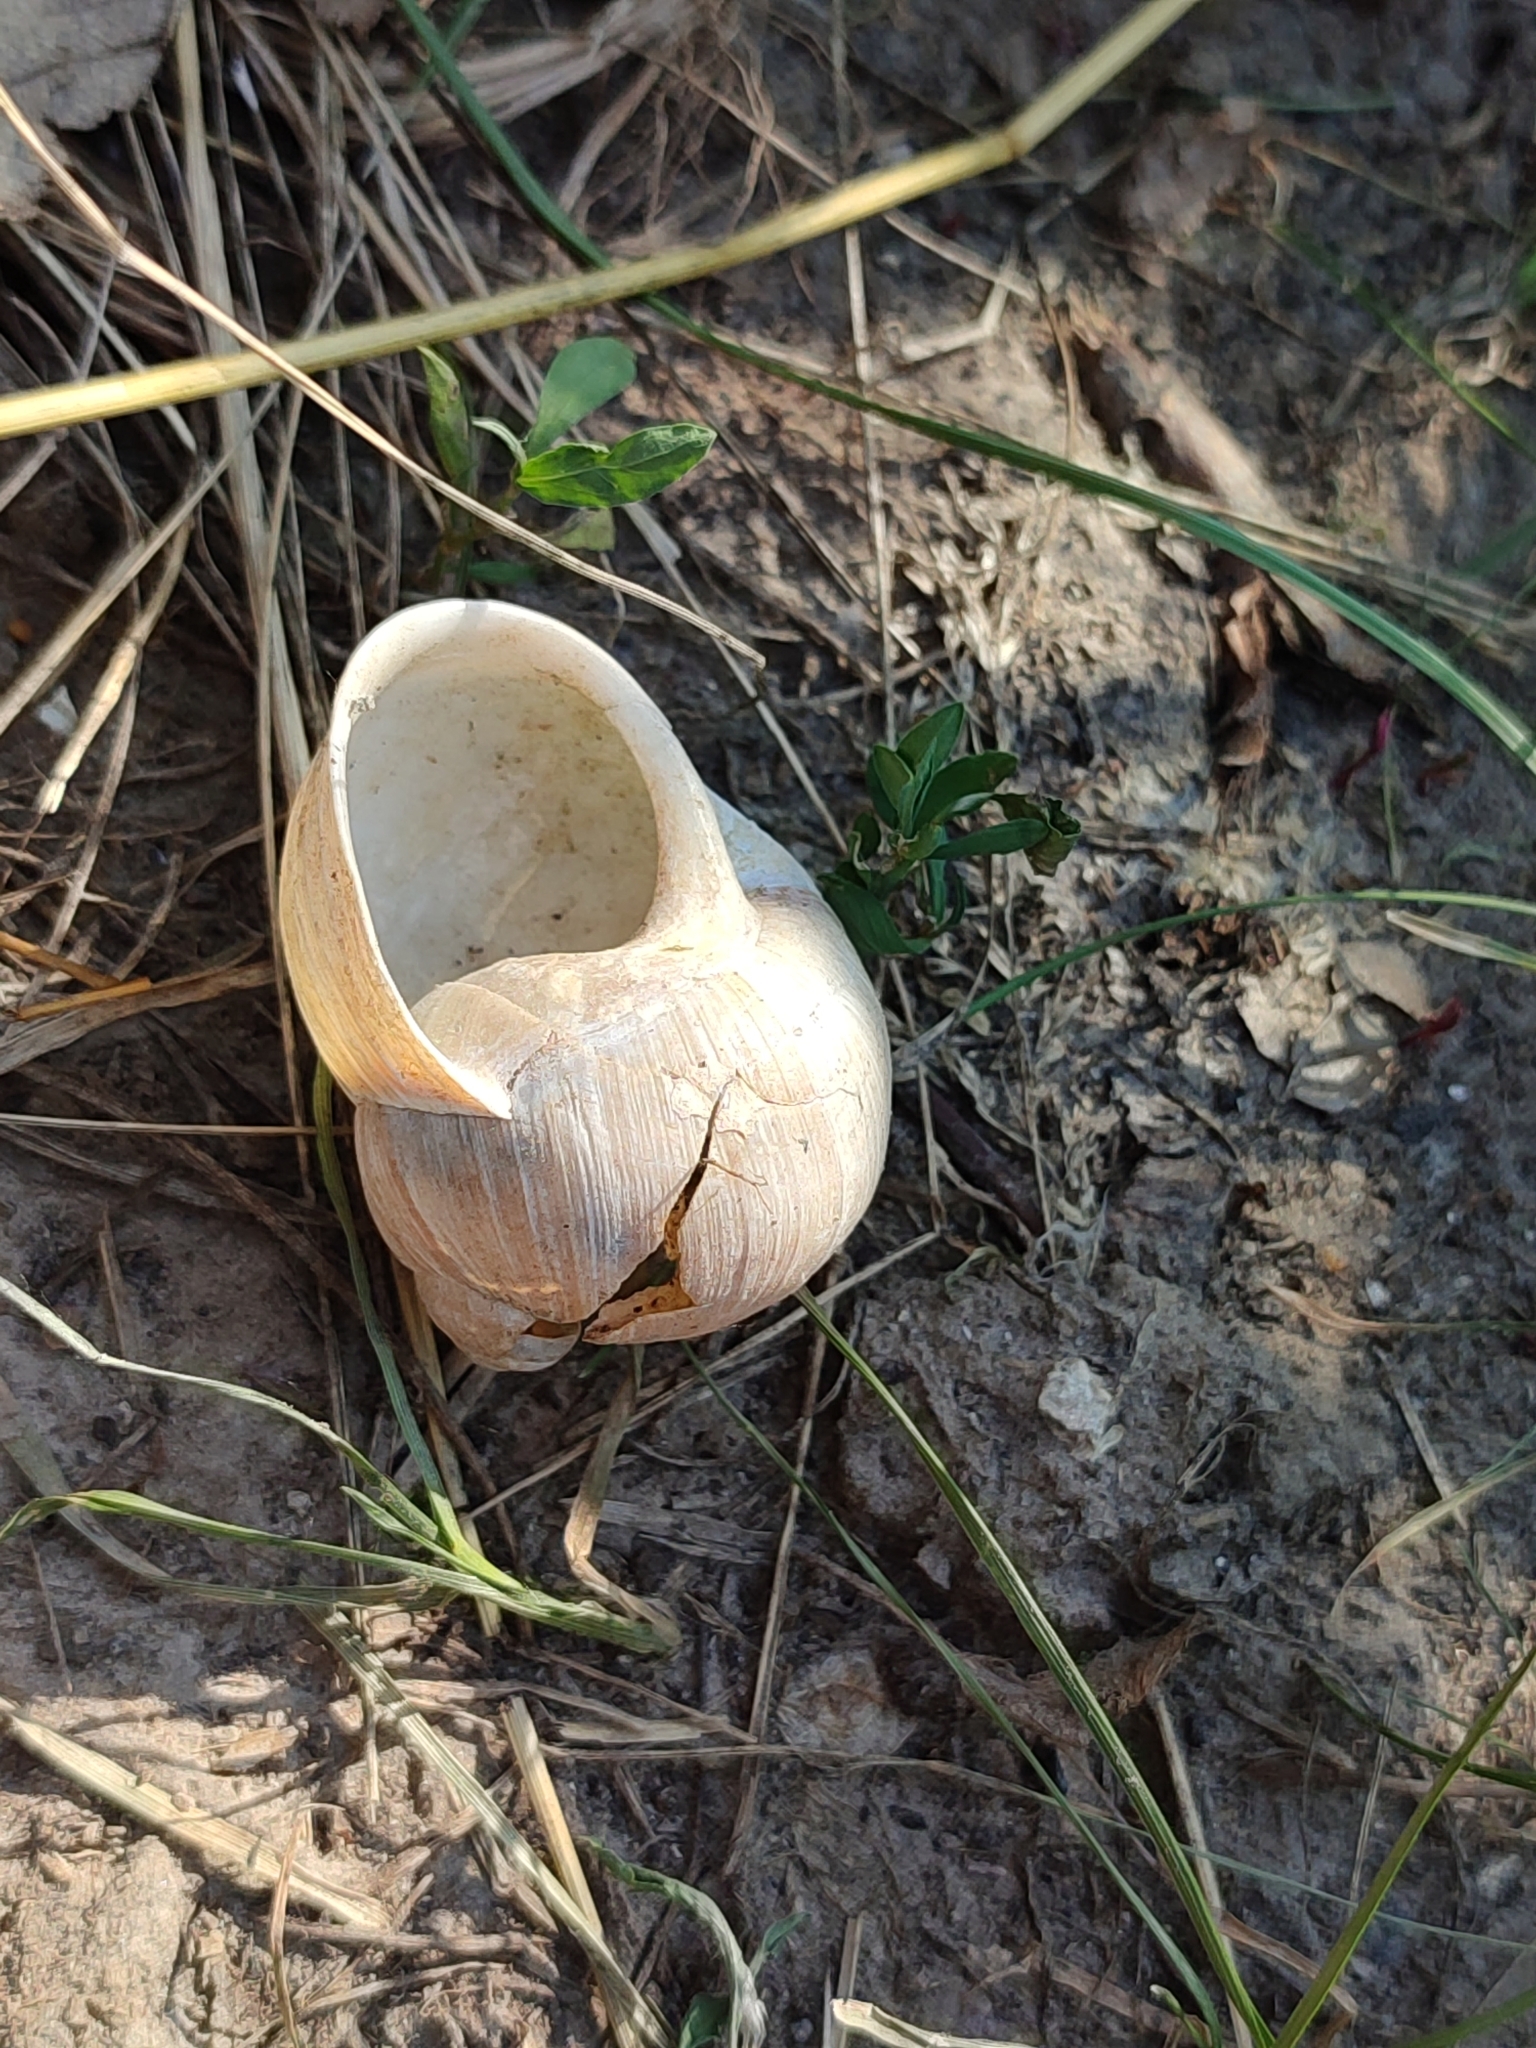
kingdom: Animalia
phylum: Mollusca
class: Gastropoda
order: Stylommatophora
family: Helicidae
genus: Helix
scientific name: Helix pomatia
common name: Roman snail
